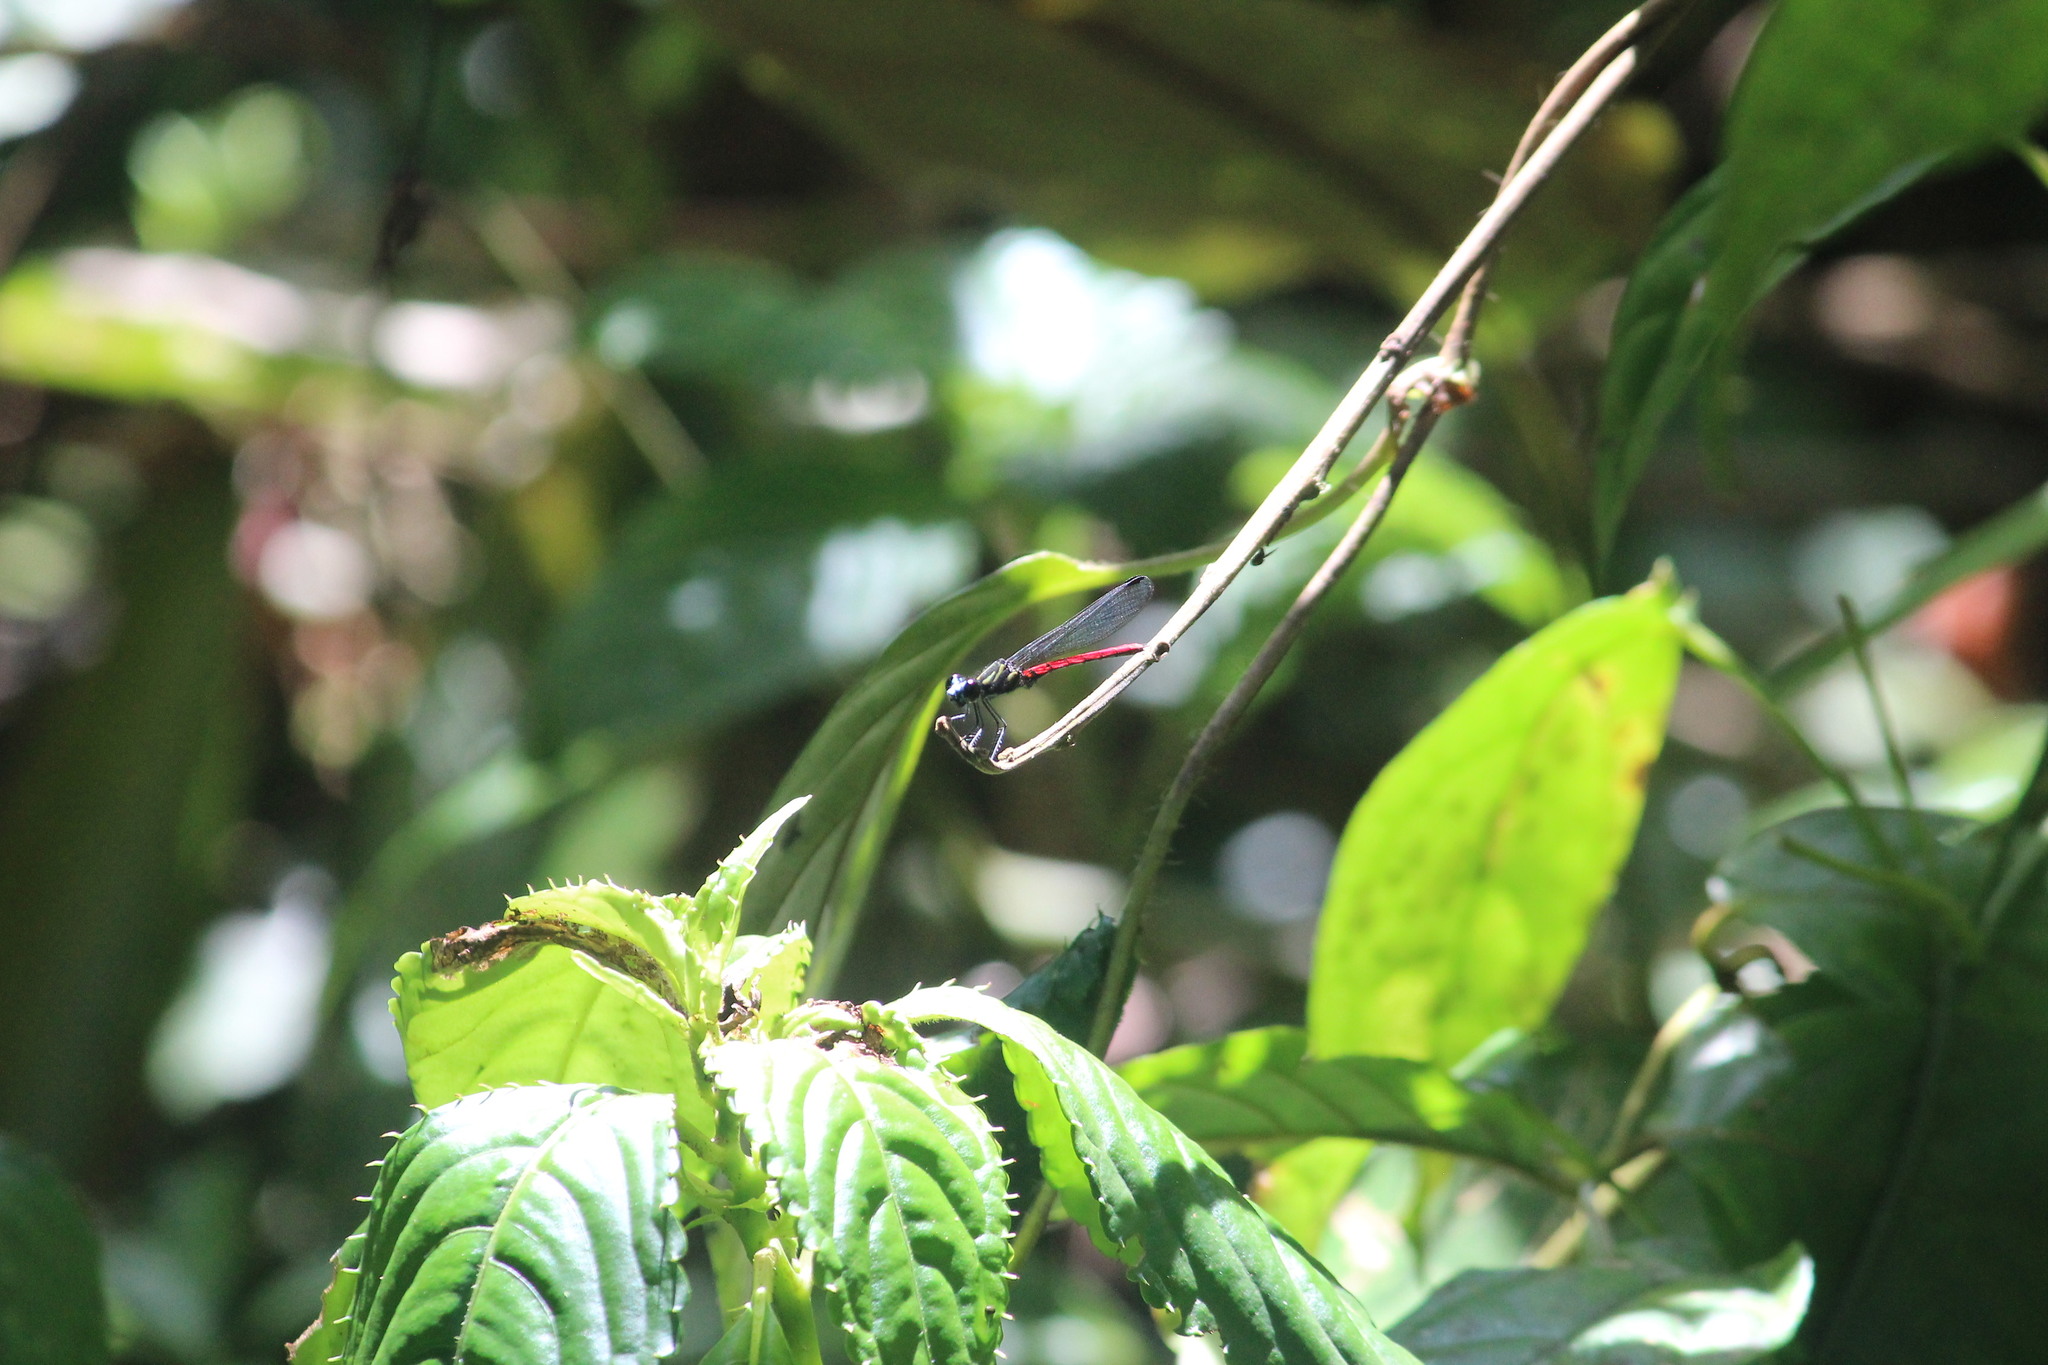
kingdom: Animalia
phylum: Arthropoda
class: Insecta
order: Odonata
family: Chlorocyphidae
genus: Chlorocypha
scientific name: Chlorocypha trifaria
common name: Blue-nosed jewel
